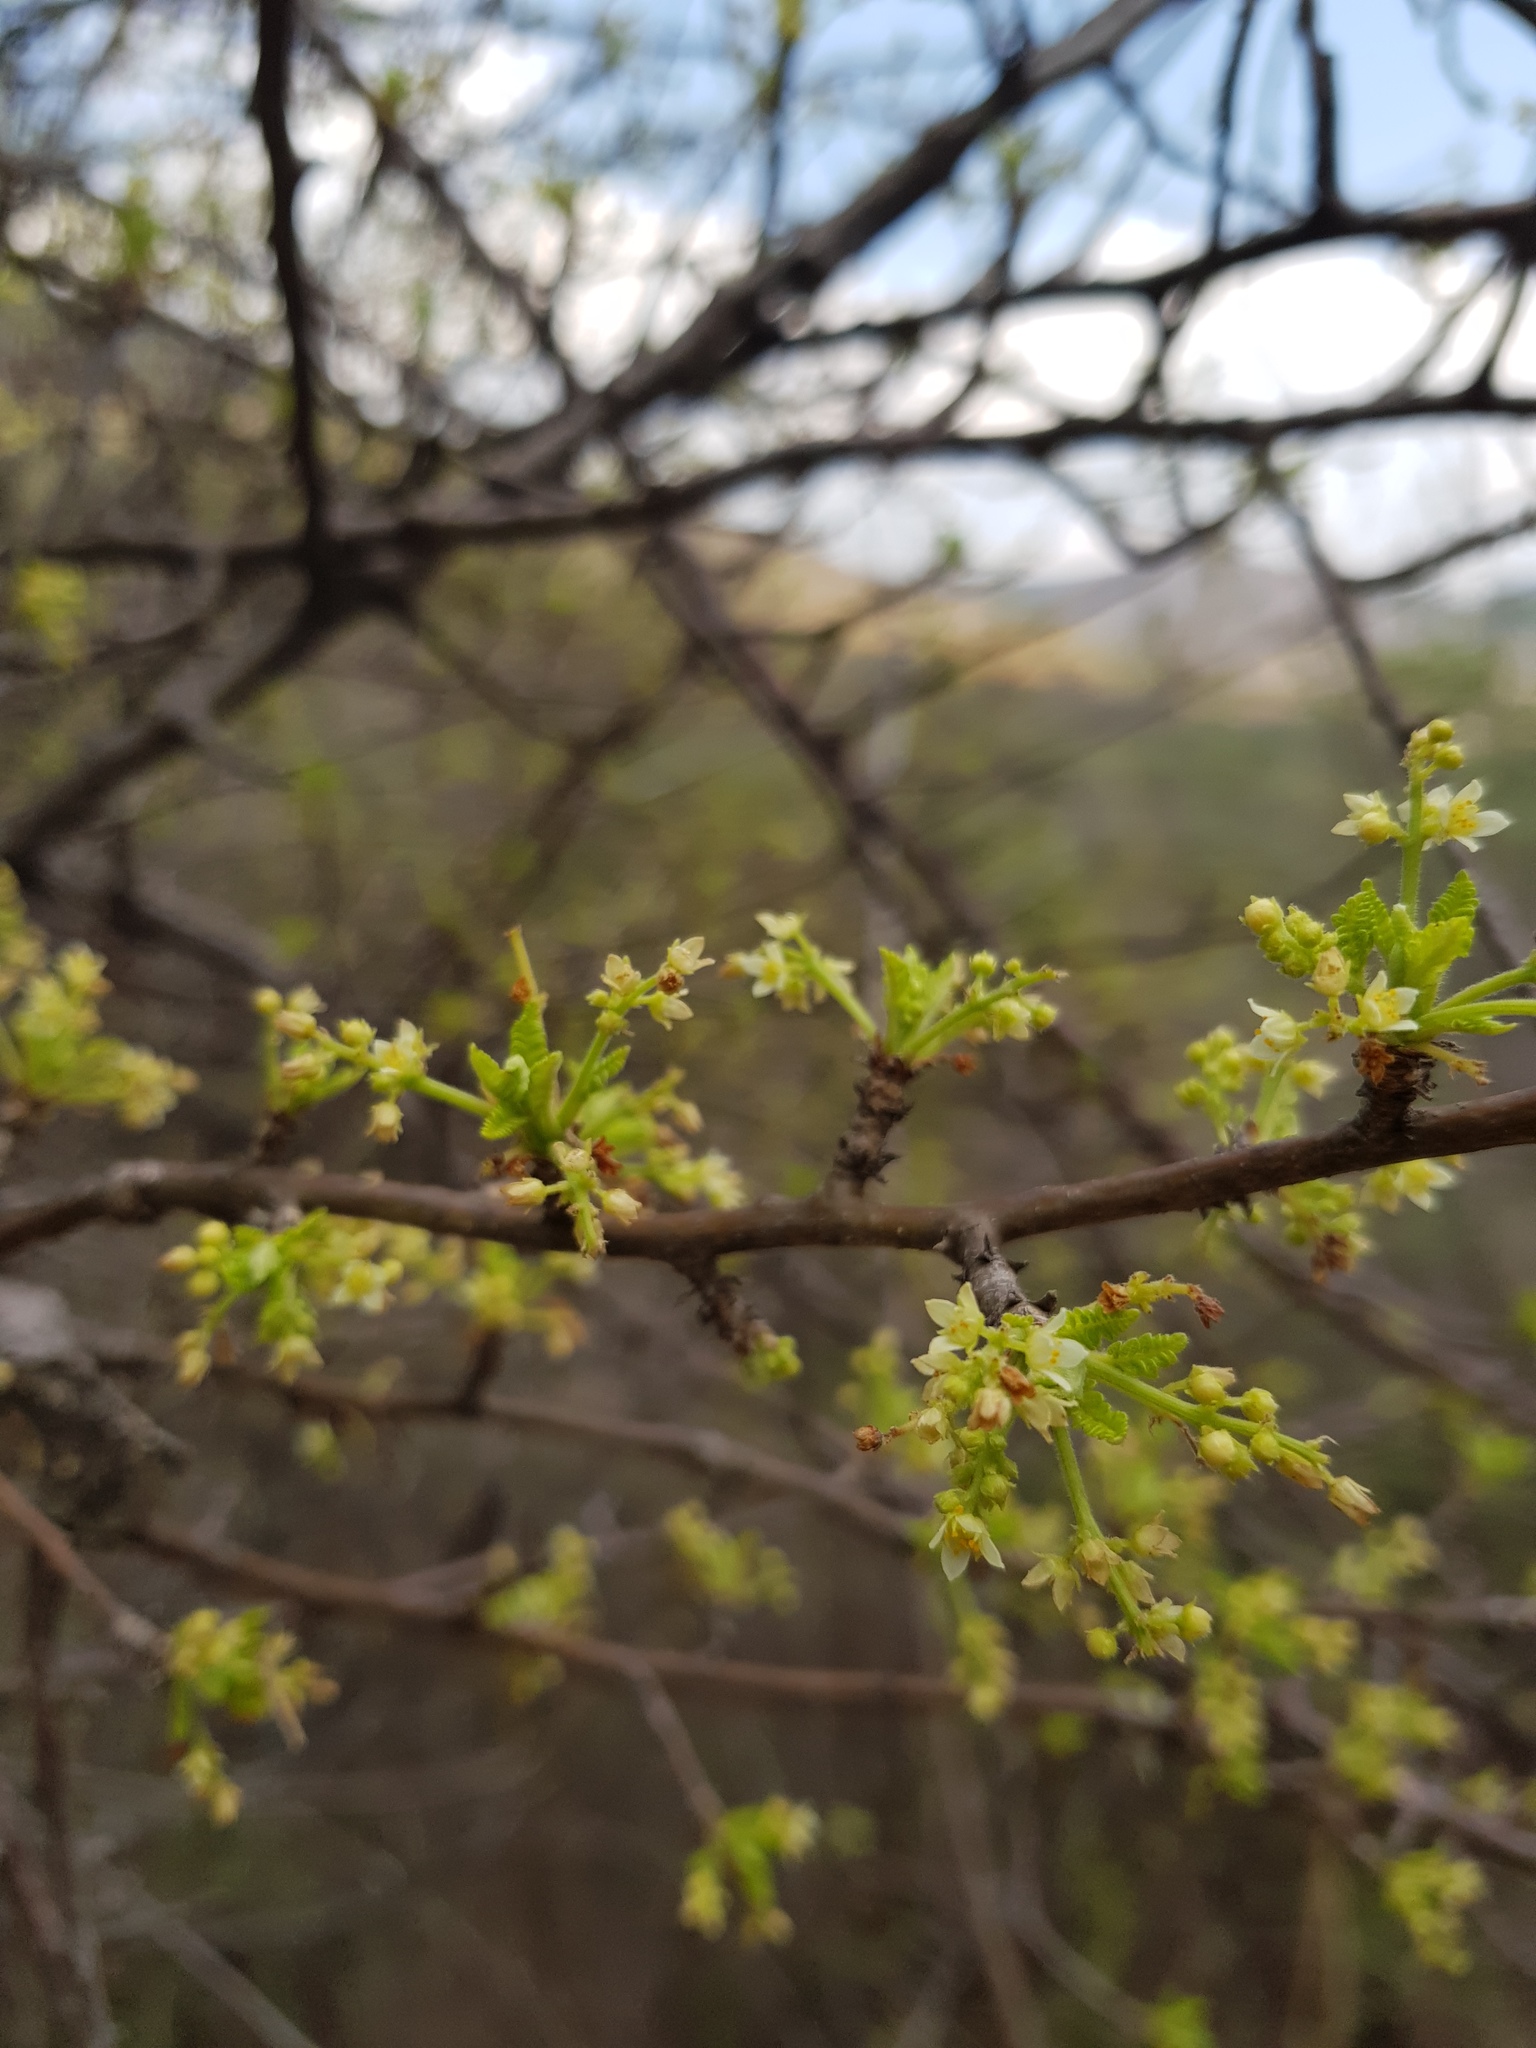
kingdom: Plantae
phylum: Tracheophyta
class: Magnoliopsida
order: Sapindales
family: Burseraceae
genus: Bursera
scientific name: Bursera bipinnata
